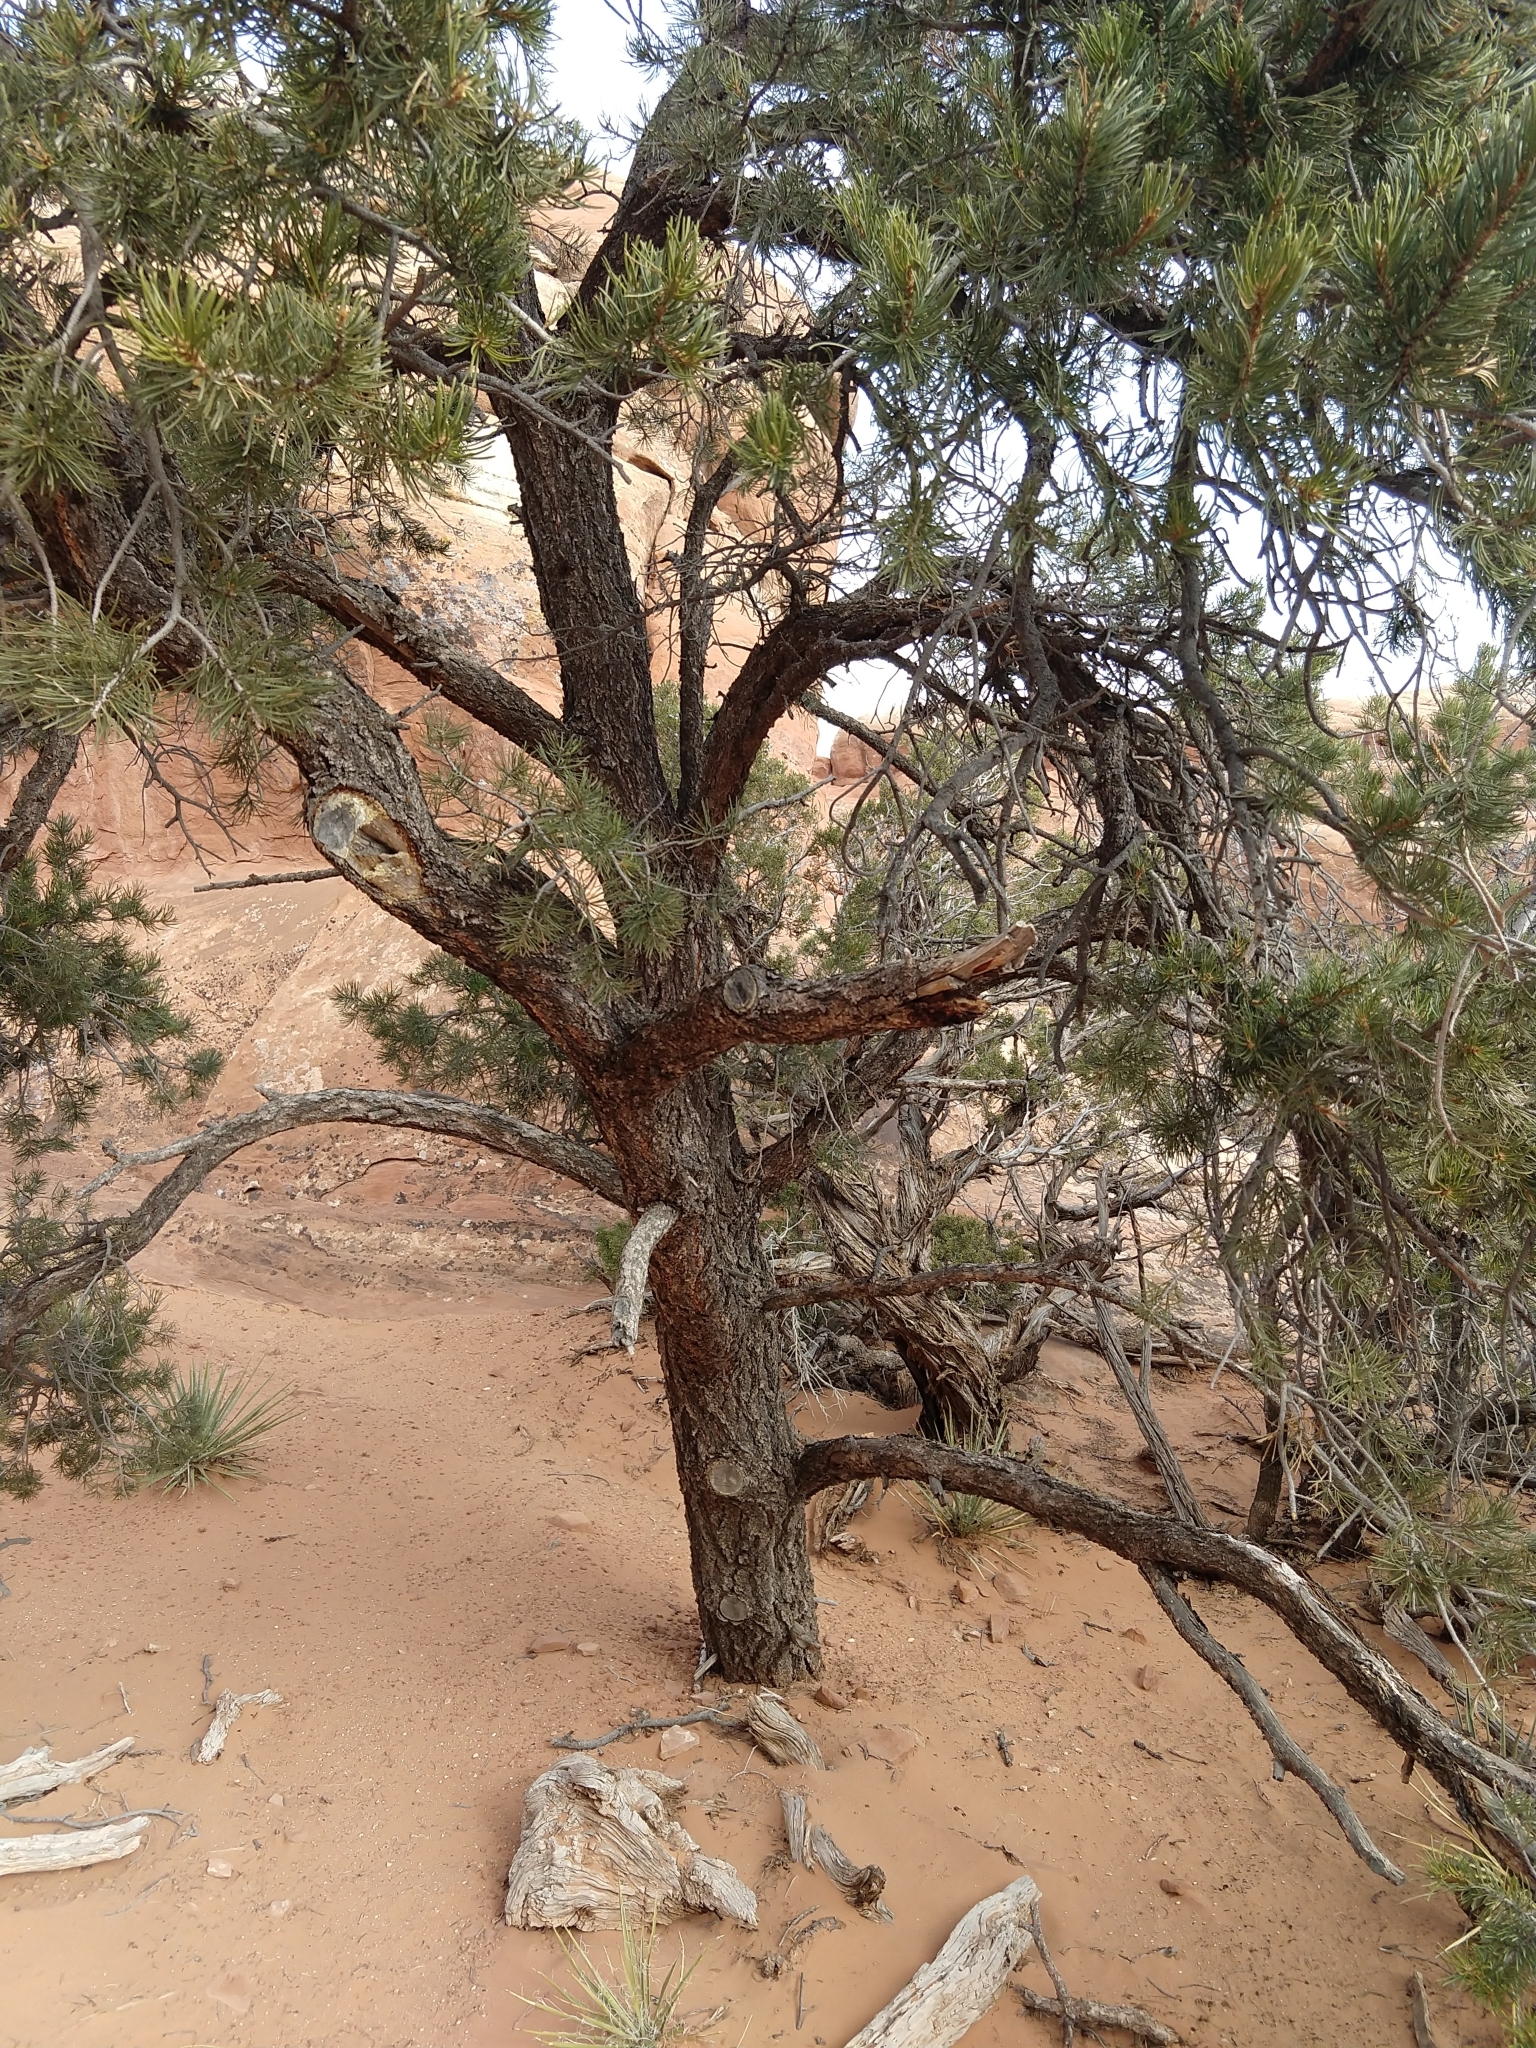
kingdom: Plantae
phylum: Tracheophyta
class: Pinopsida
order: Pinales
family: Pinaceae
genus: Pinus
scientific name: Pinus edulis
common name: Colorado pinyon
